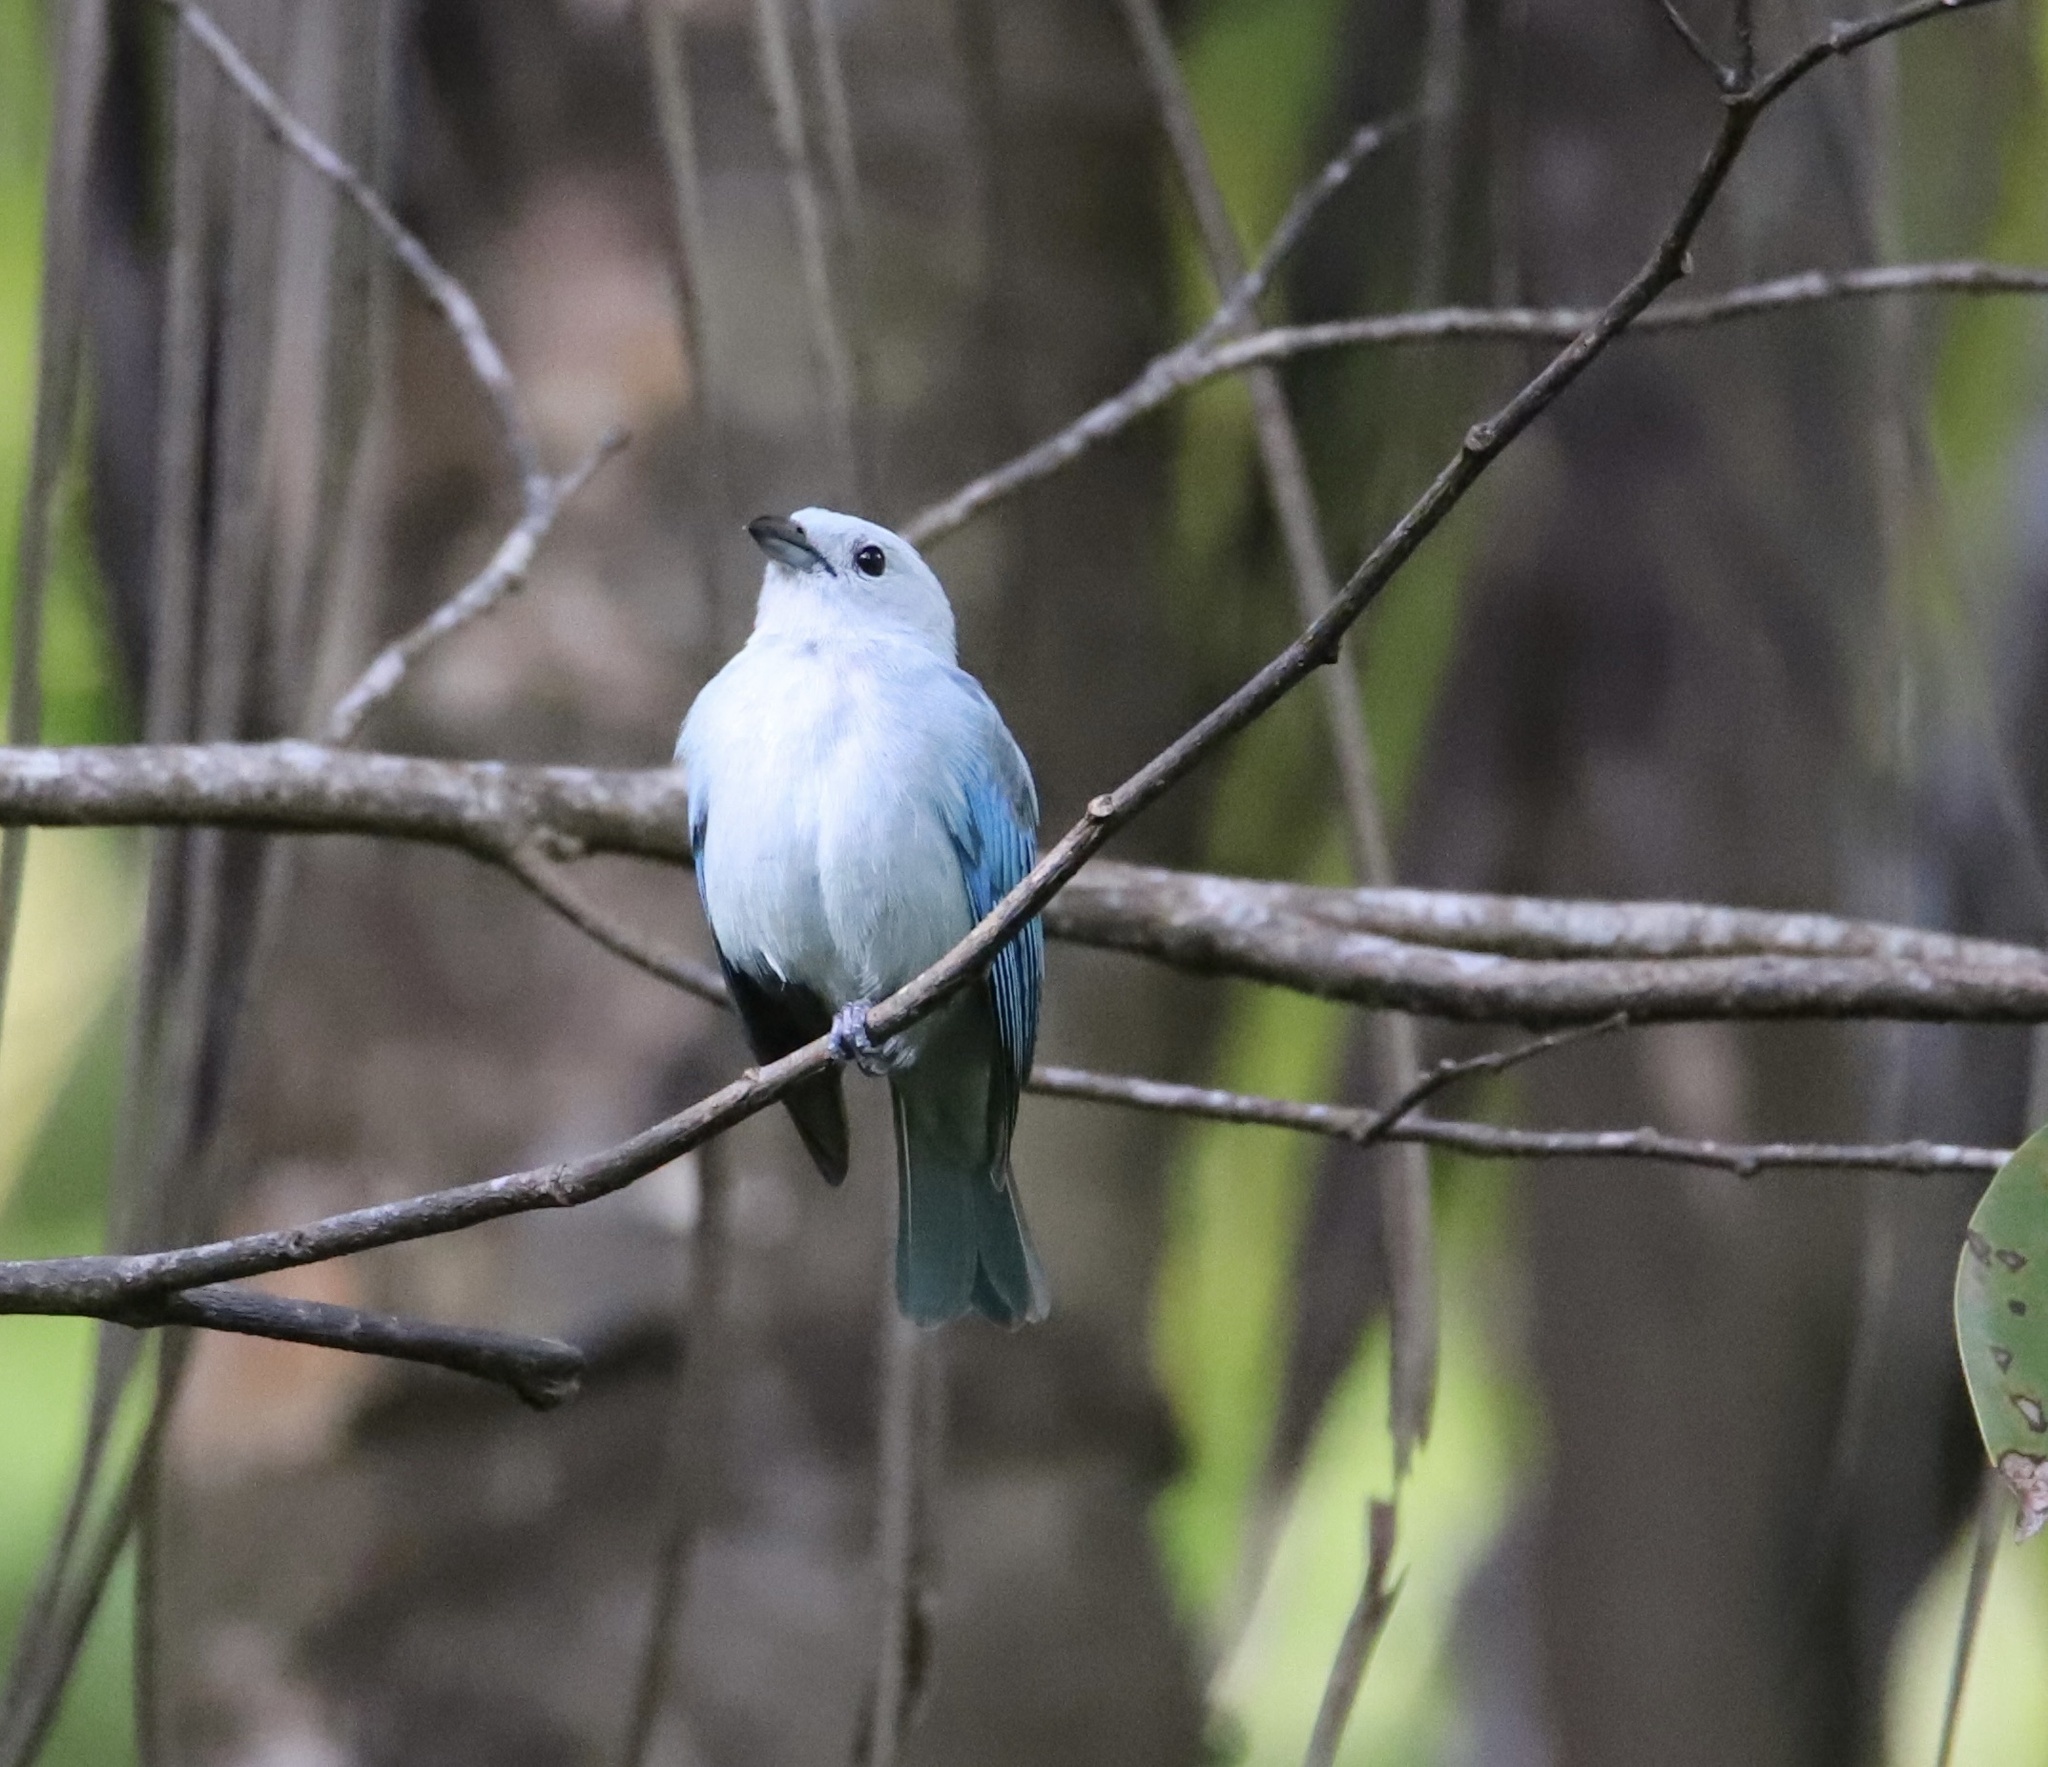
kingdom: Animalia
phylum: Chordata
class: Aves
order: Passeriformes
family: Thraupidae
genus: Thraupis
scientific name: Thraupis episcopus
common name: Blue-grey tanager
